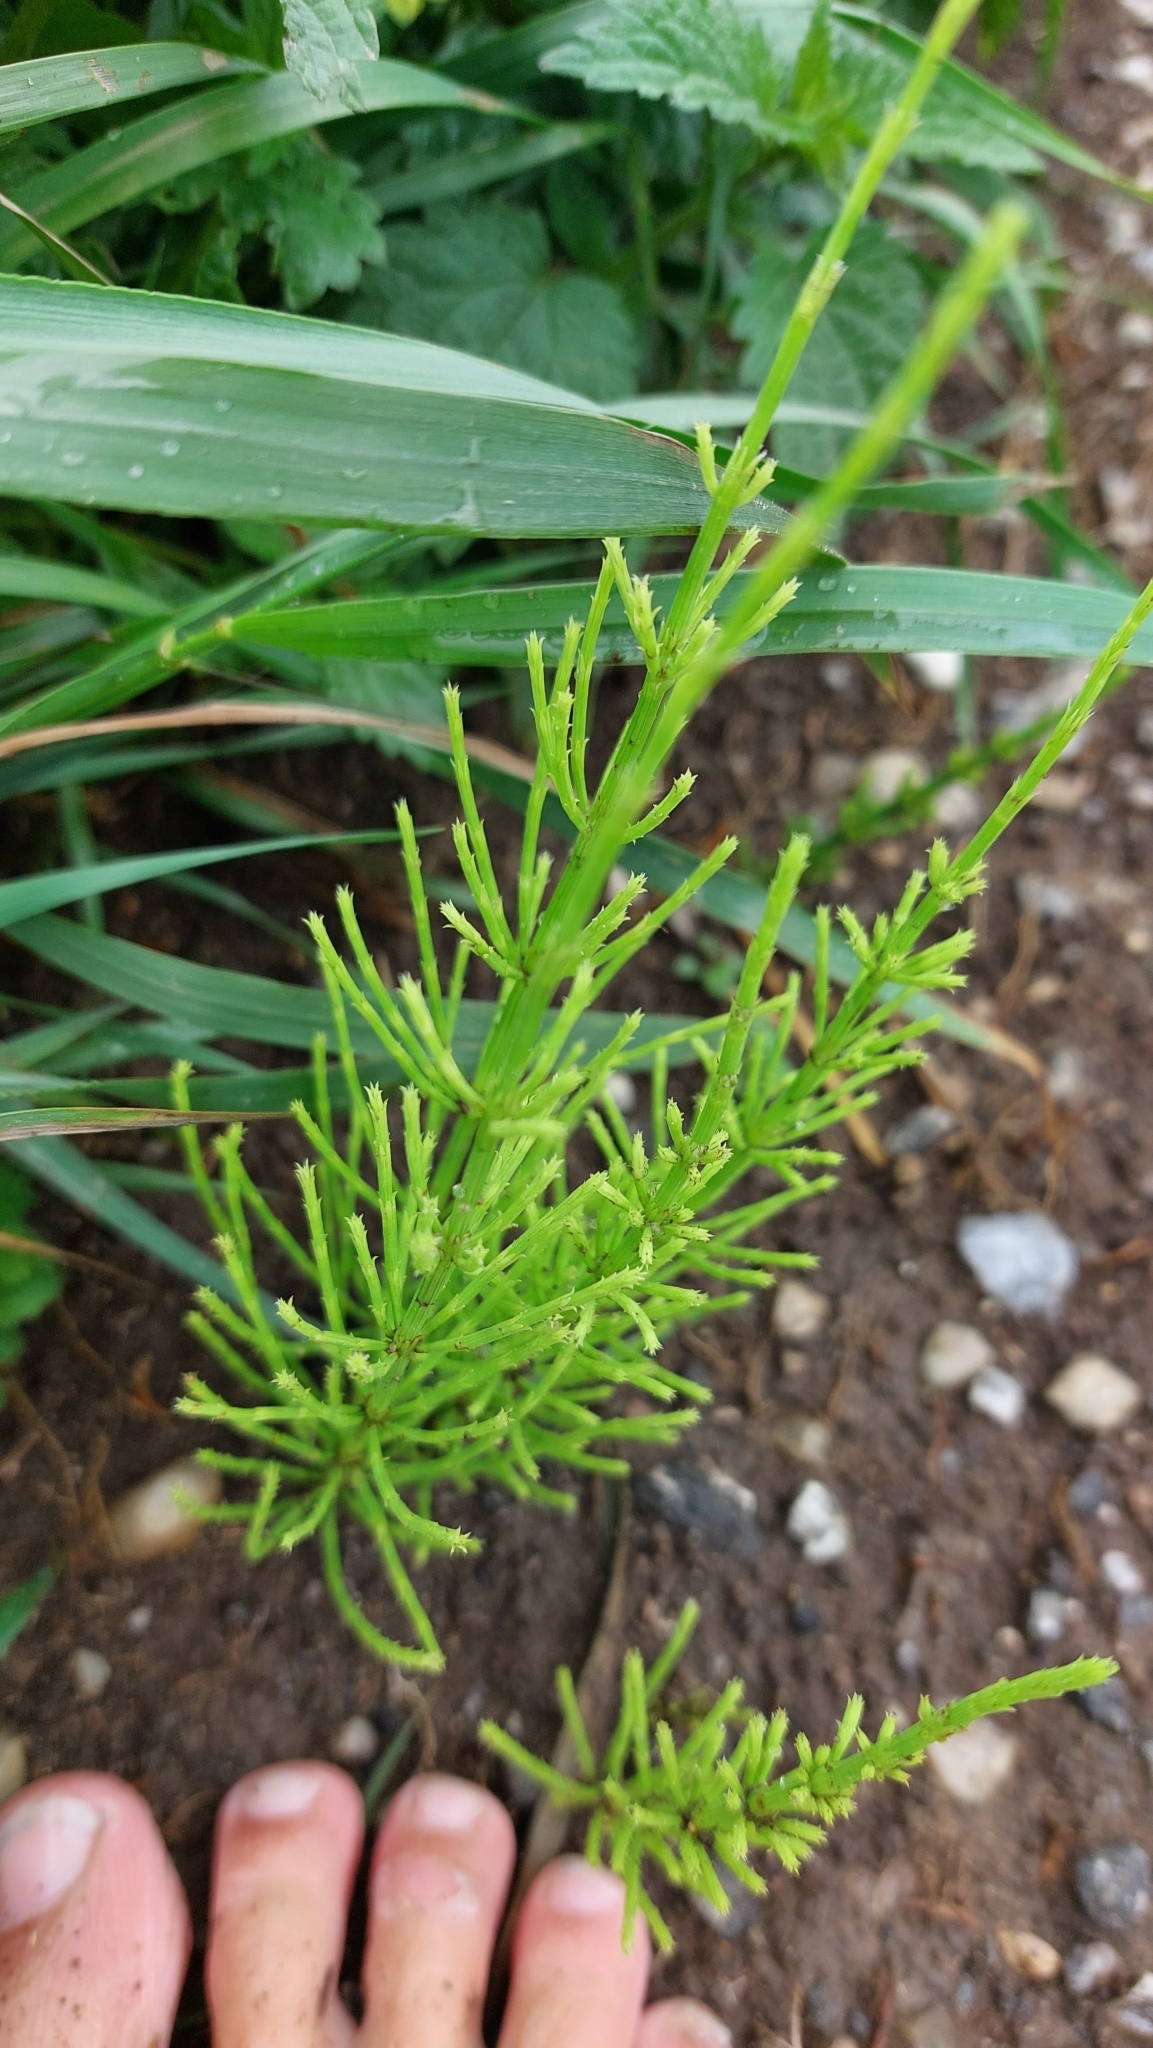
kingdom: Plantae
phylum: Tracheophyta
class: Polypodiopsida
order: Equisetales
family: Equisetaceae
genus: Equisetum
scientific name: Equisetum arvense
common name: Field horsetail
